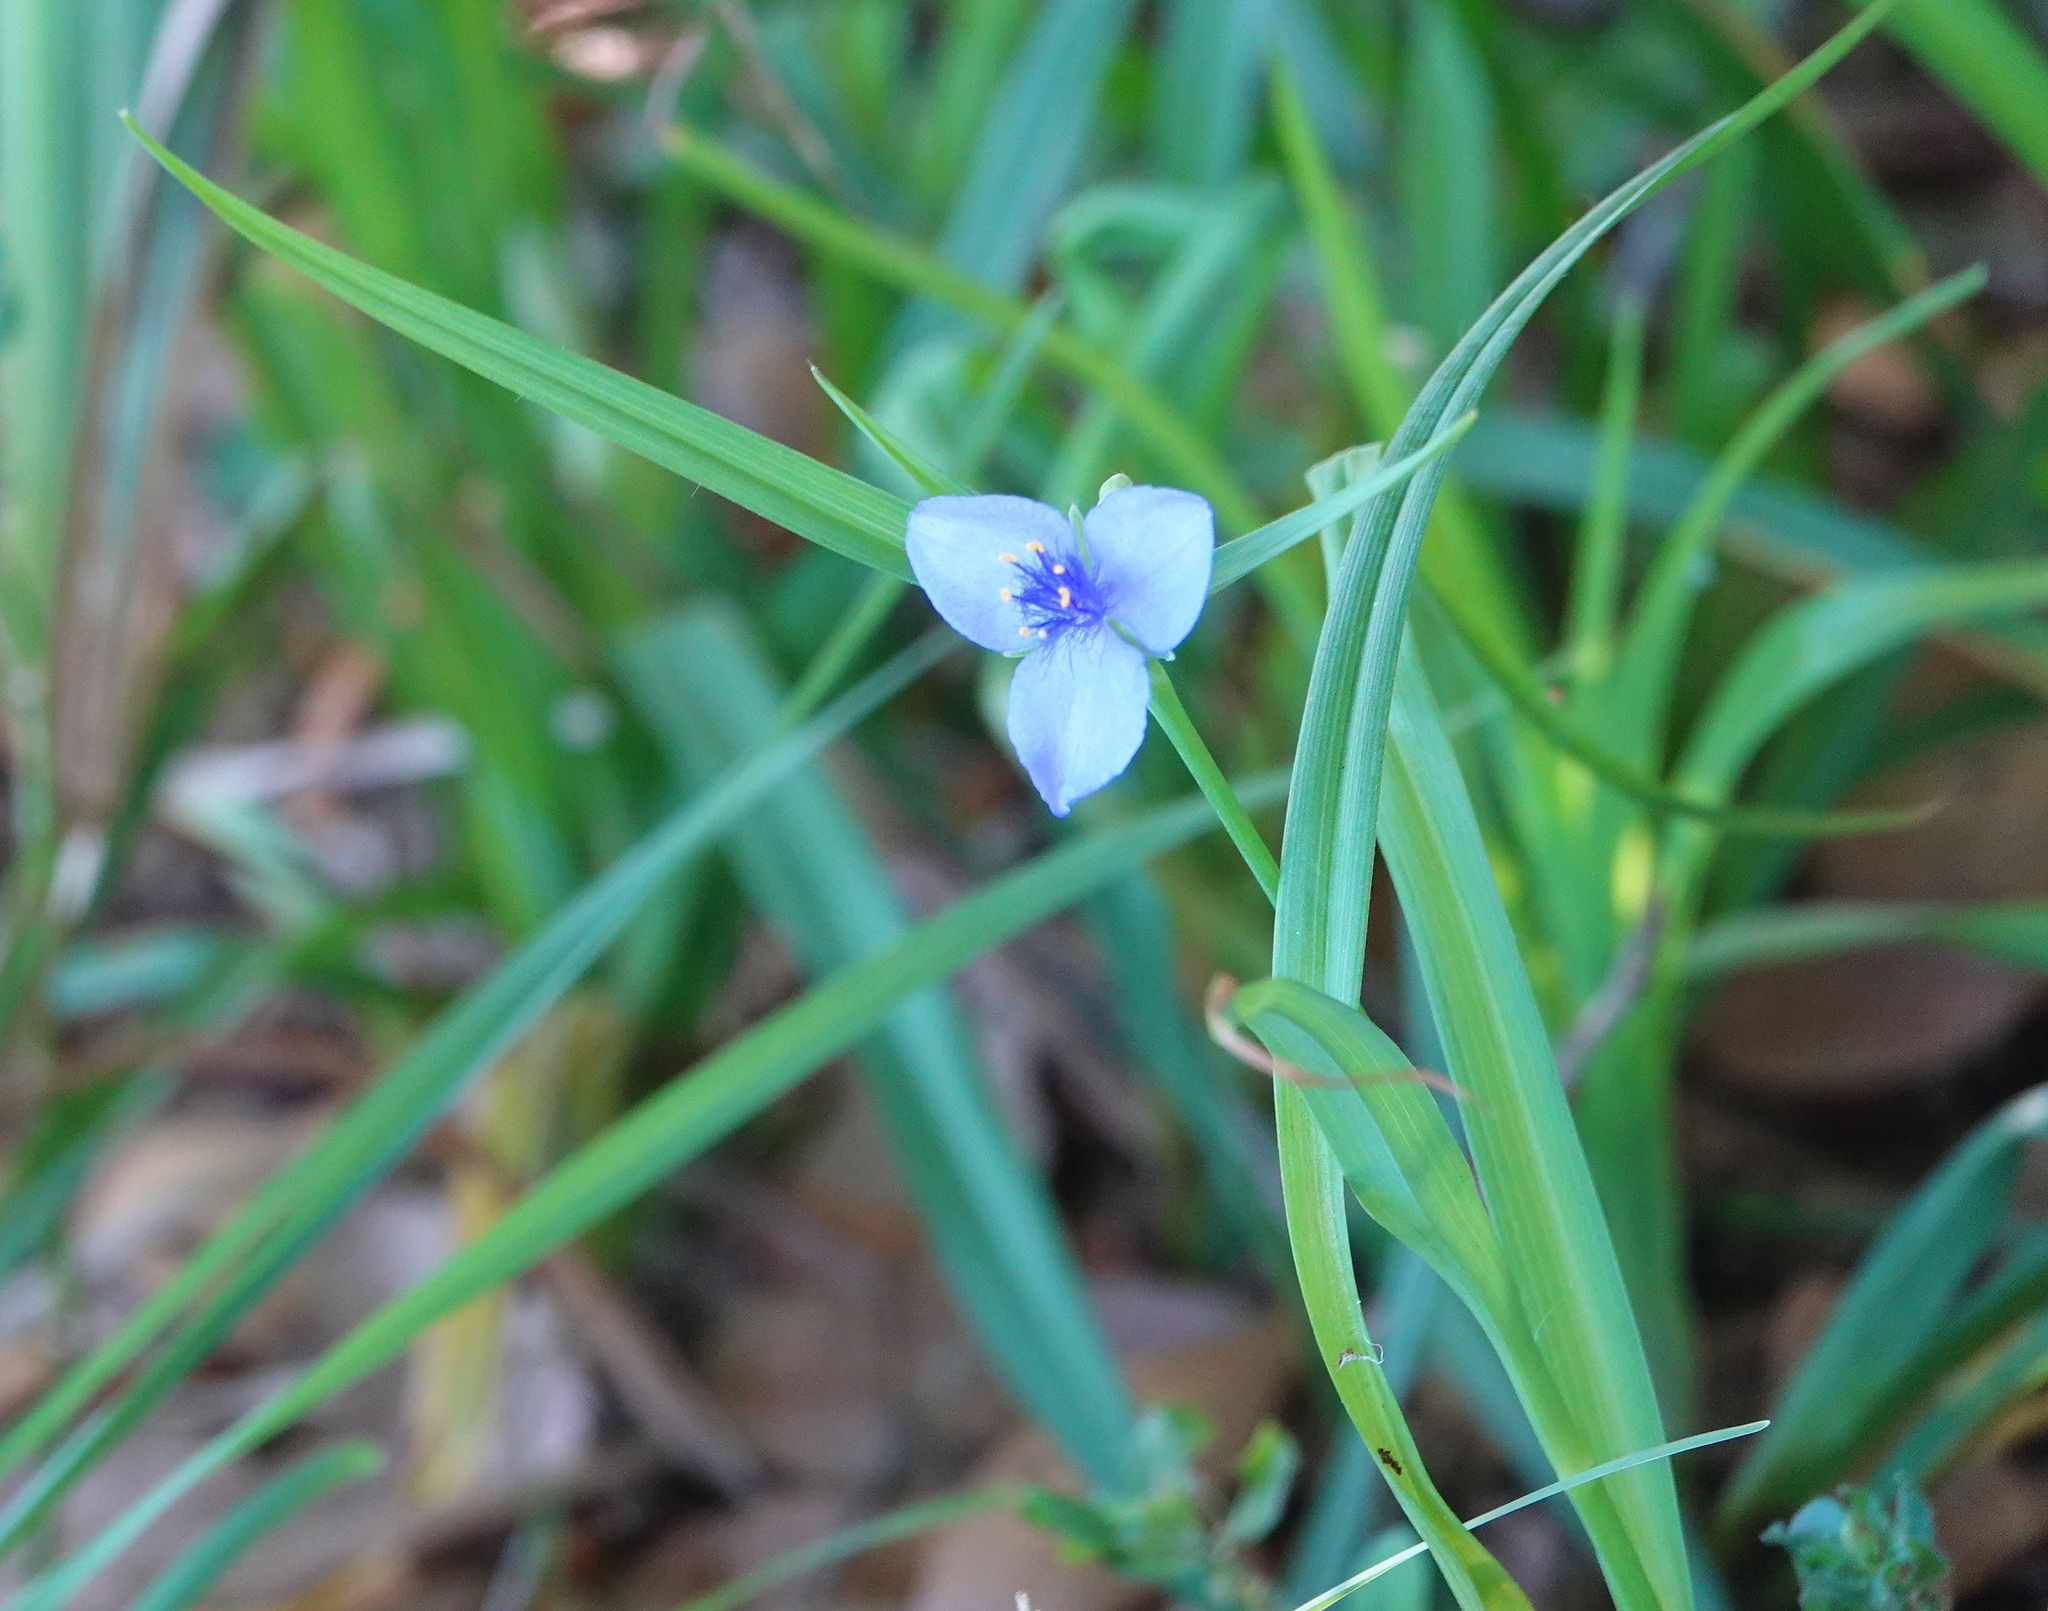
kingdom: Plantae
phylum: Tracheophyta
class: Liliopsida
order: Commelinales
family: Commelinaceae
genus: Tradescantia
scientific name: Tradescantia ohiensis
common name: Ohio spiderwort
